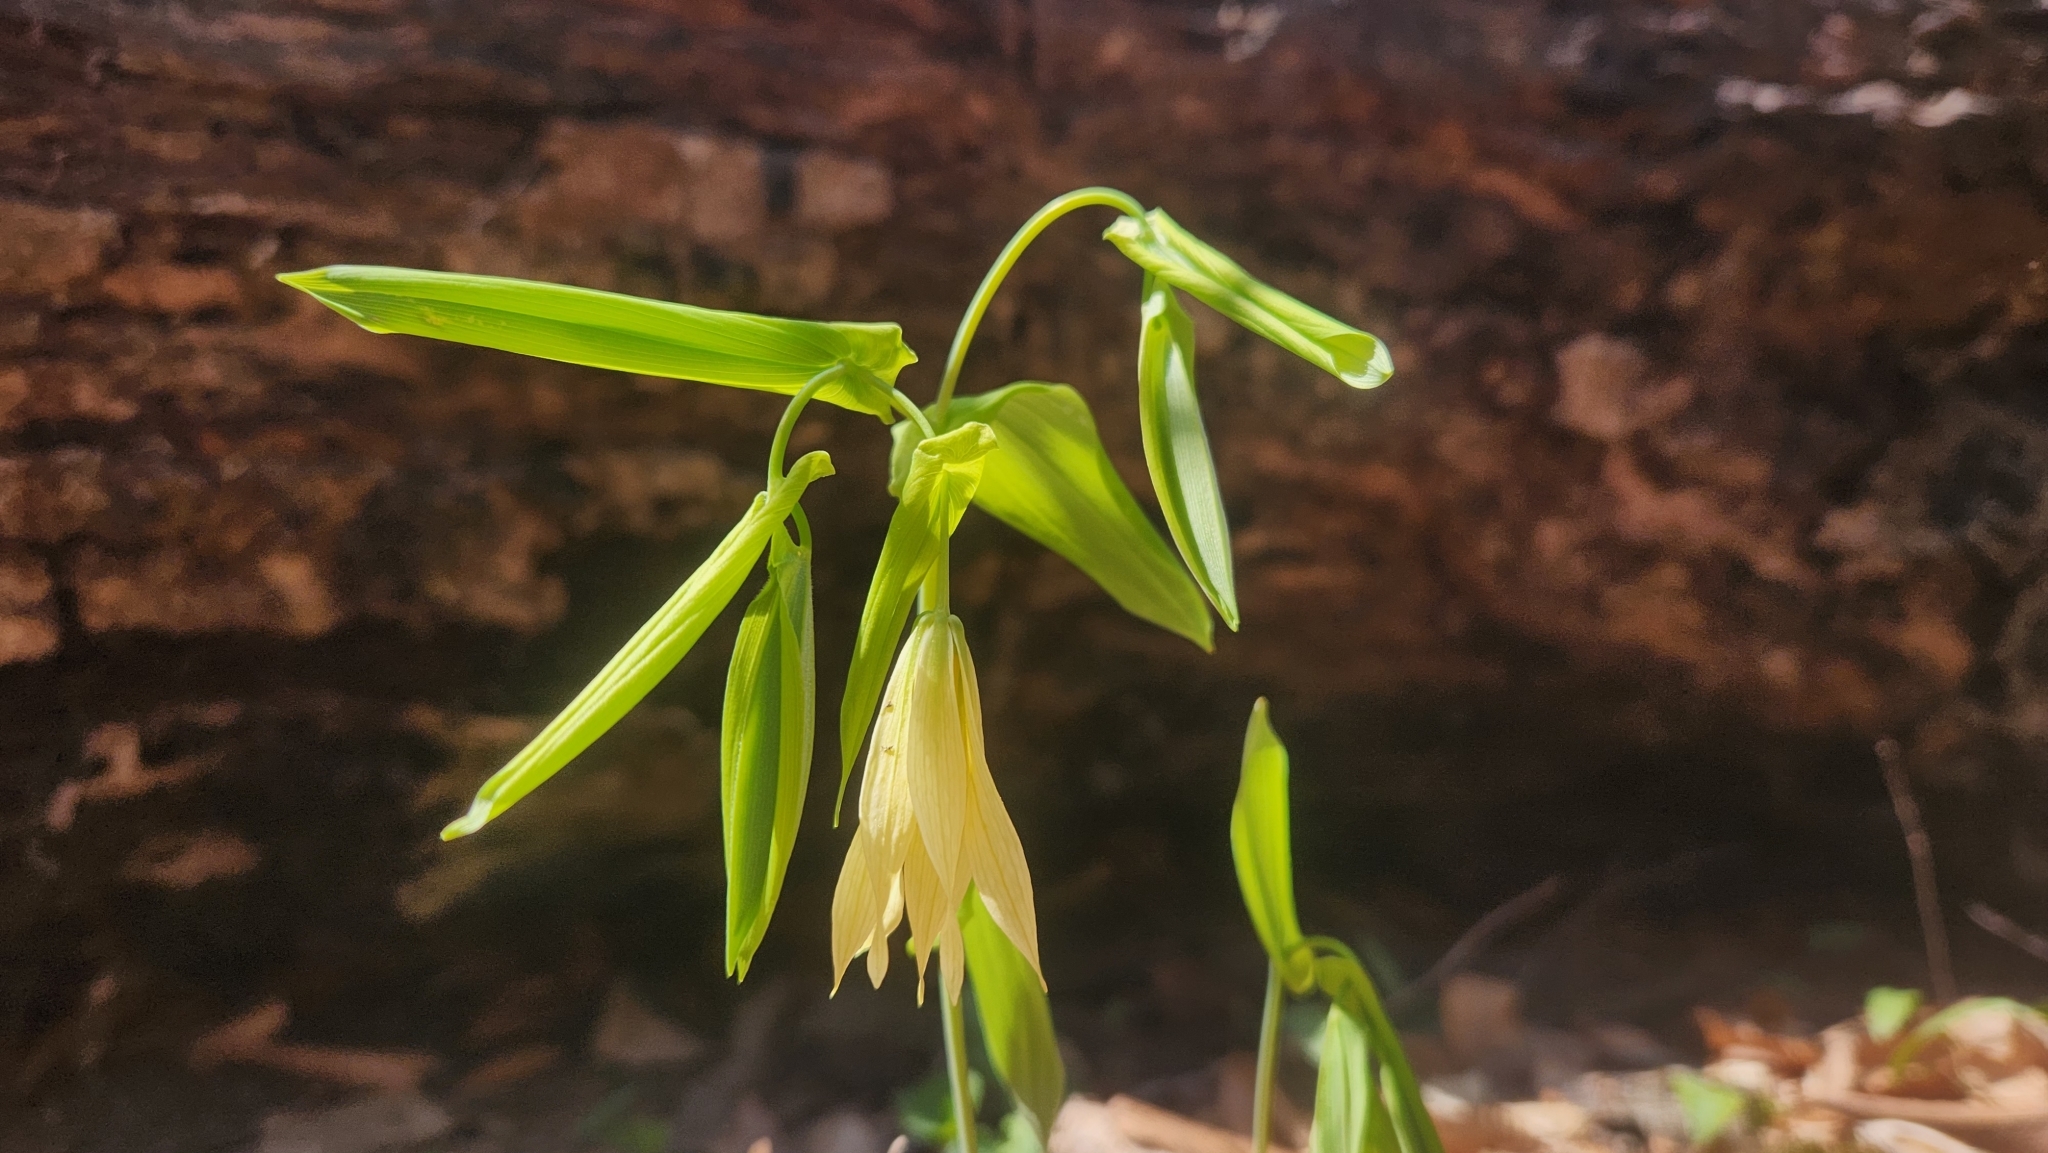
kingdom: Plantae
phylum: Tracheophyta
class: Liliopsida
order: Liliales
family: Colchicaceae
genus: Uvularia
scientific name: Uvularia grandiflora
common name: Bellwort
